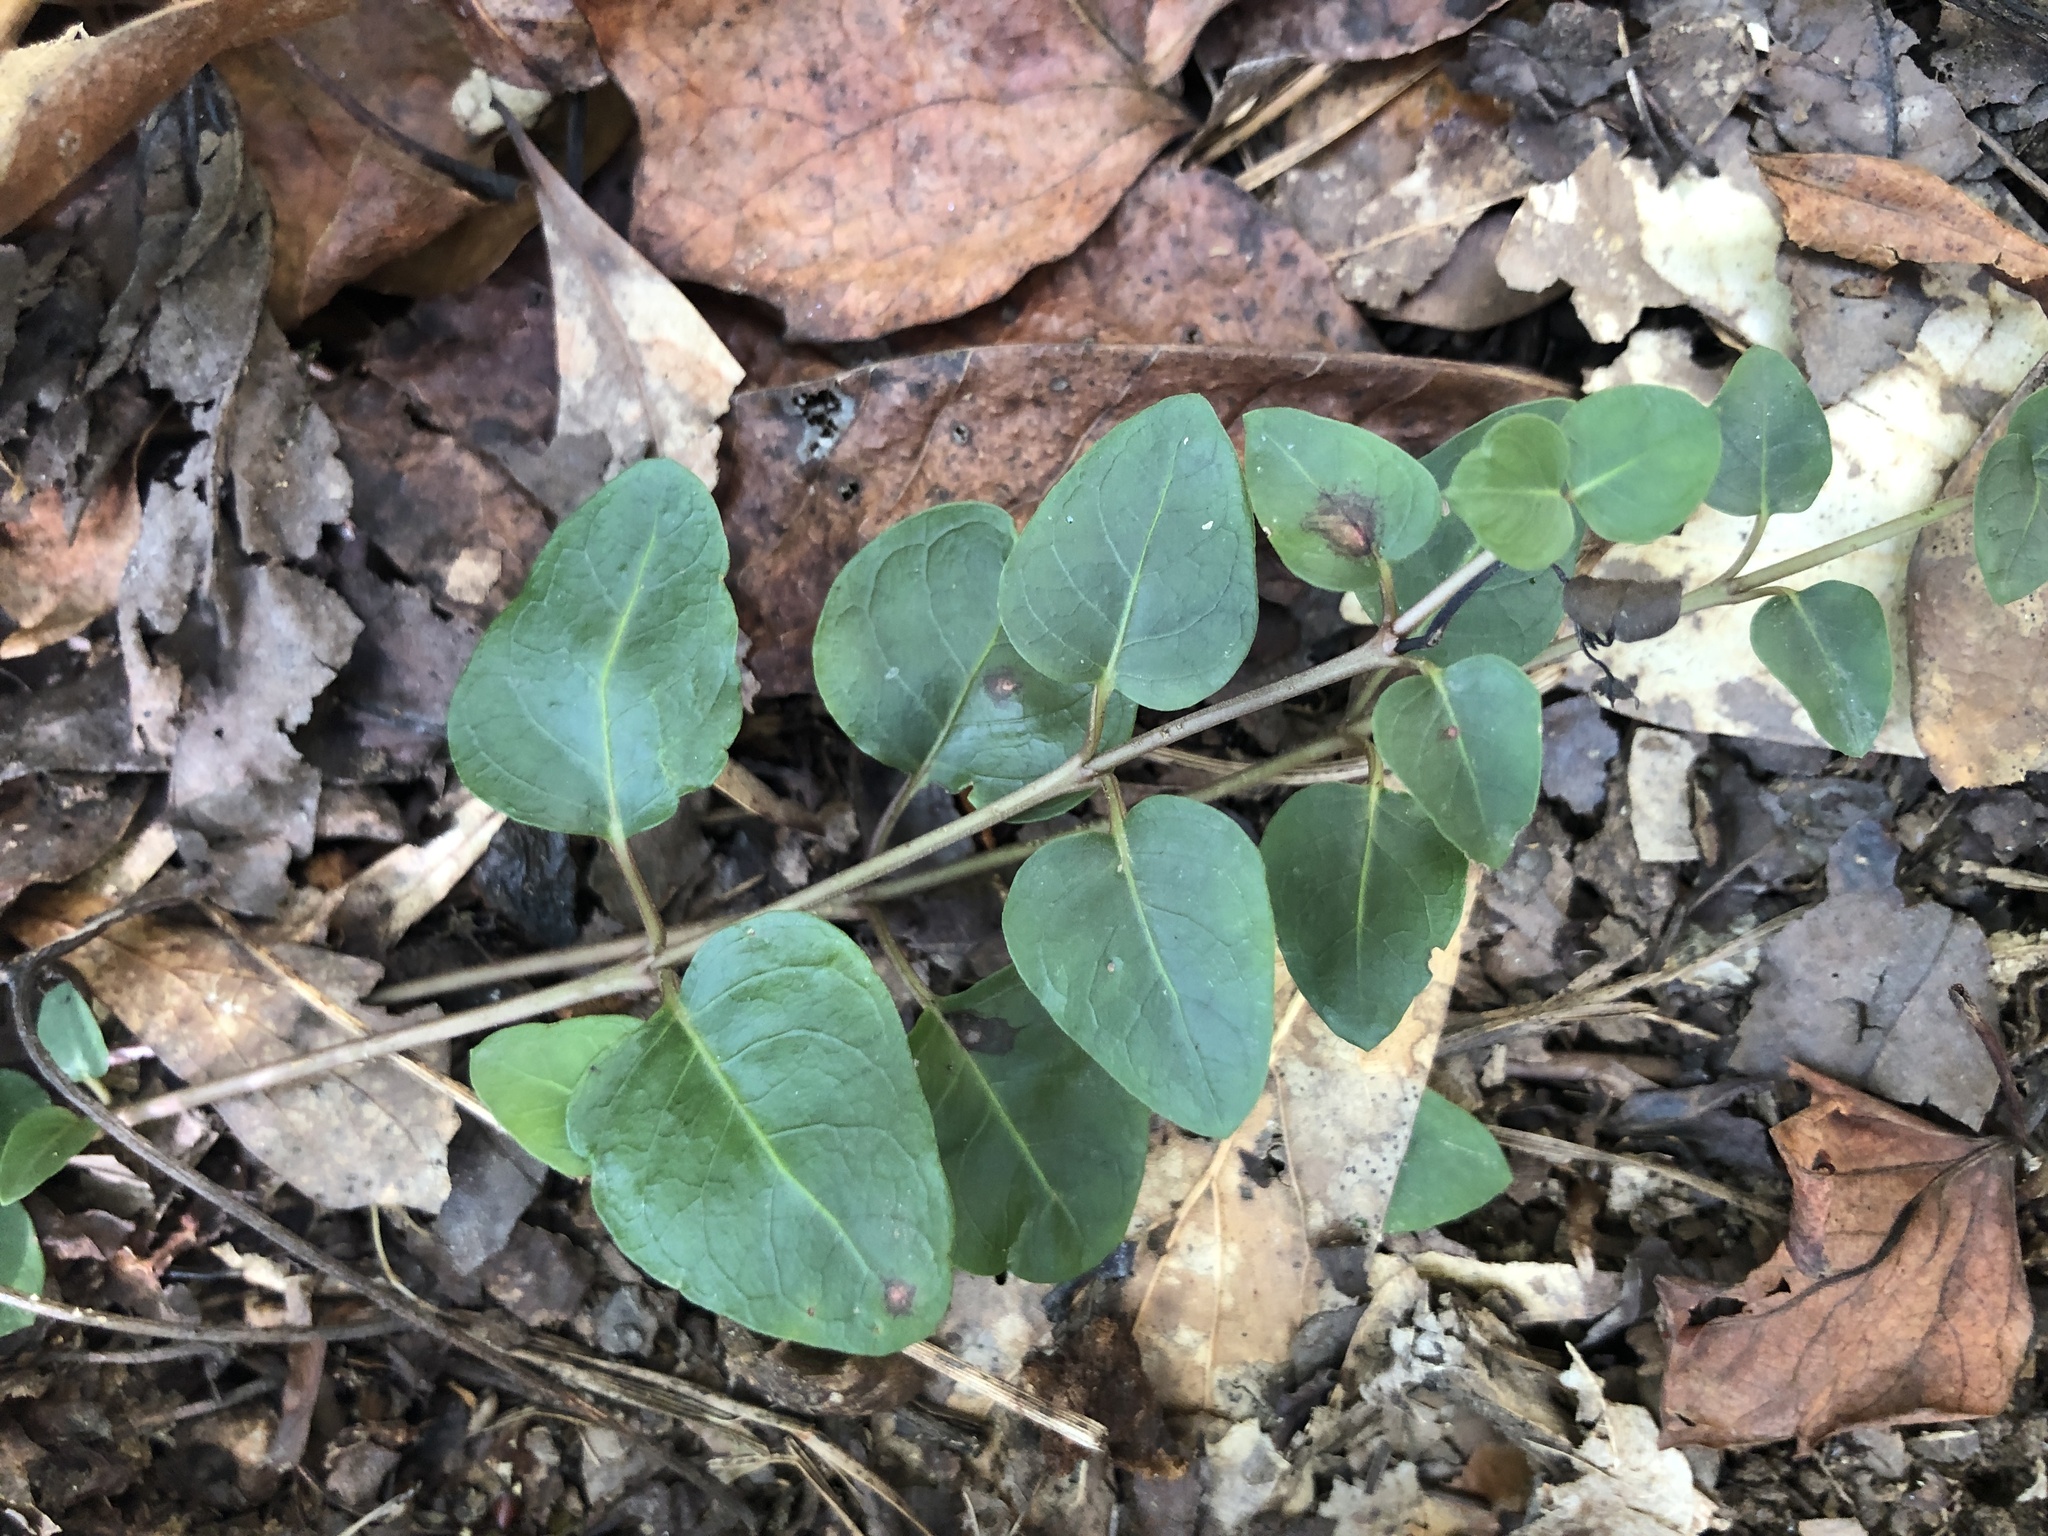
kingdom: Plantae
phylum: Tracheophyta
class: Magnoliopsida
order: Gentianales
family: Rubiaceae
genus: Mitchella
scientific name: Mitchella repens
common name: Partridge-berry
